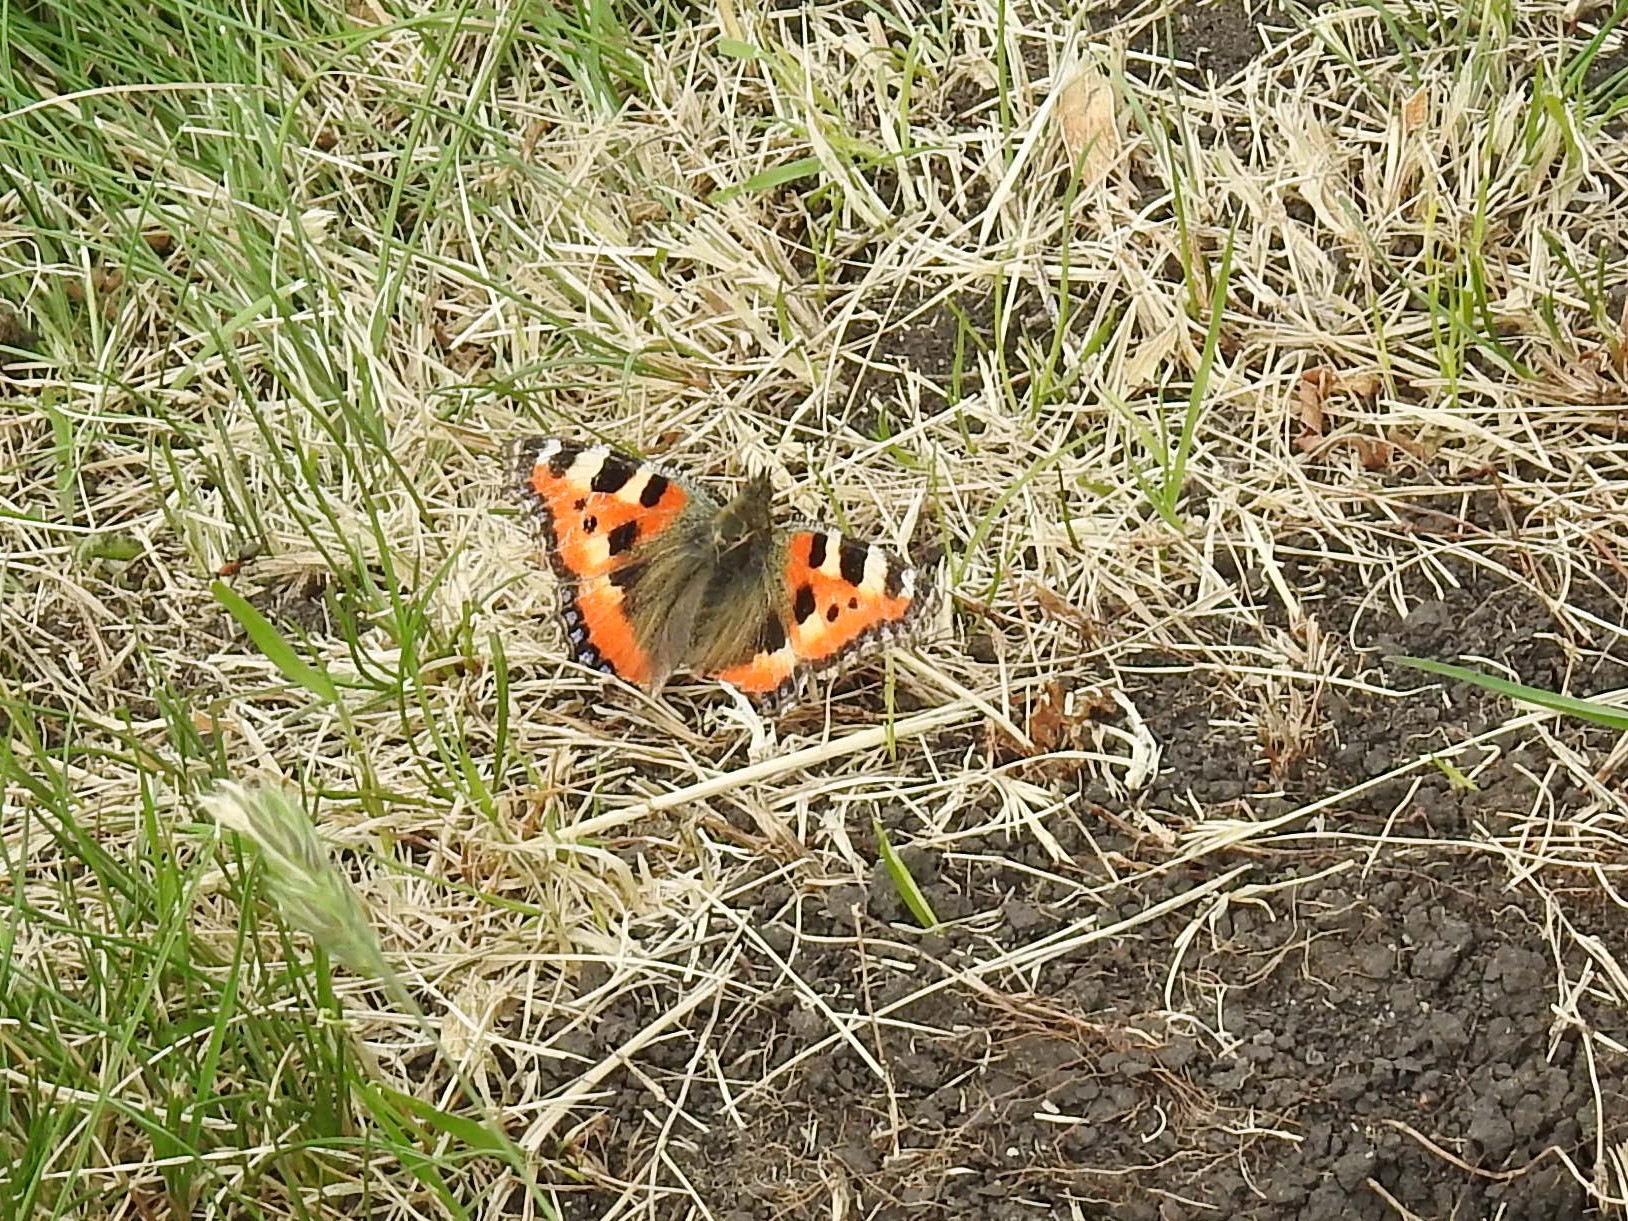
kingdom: Animalia
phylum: Arthropoda
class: Insecta
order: Lepidoptera
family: Nymphalidae
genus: Aglais
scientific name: Aglais urticae
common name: Small tortoiseshell
